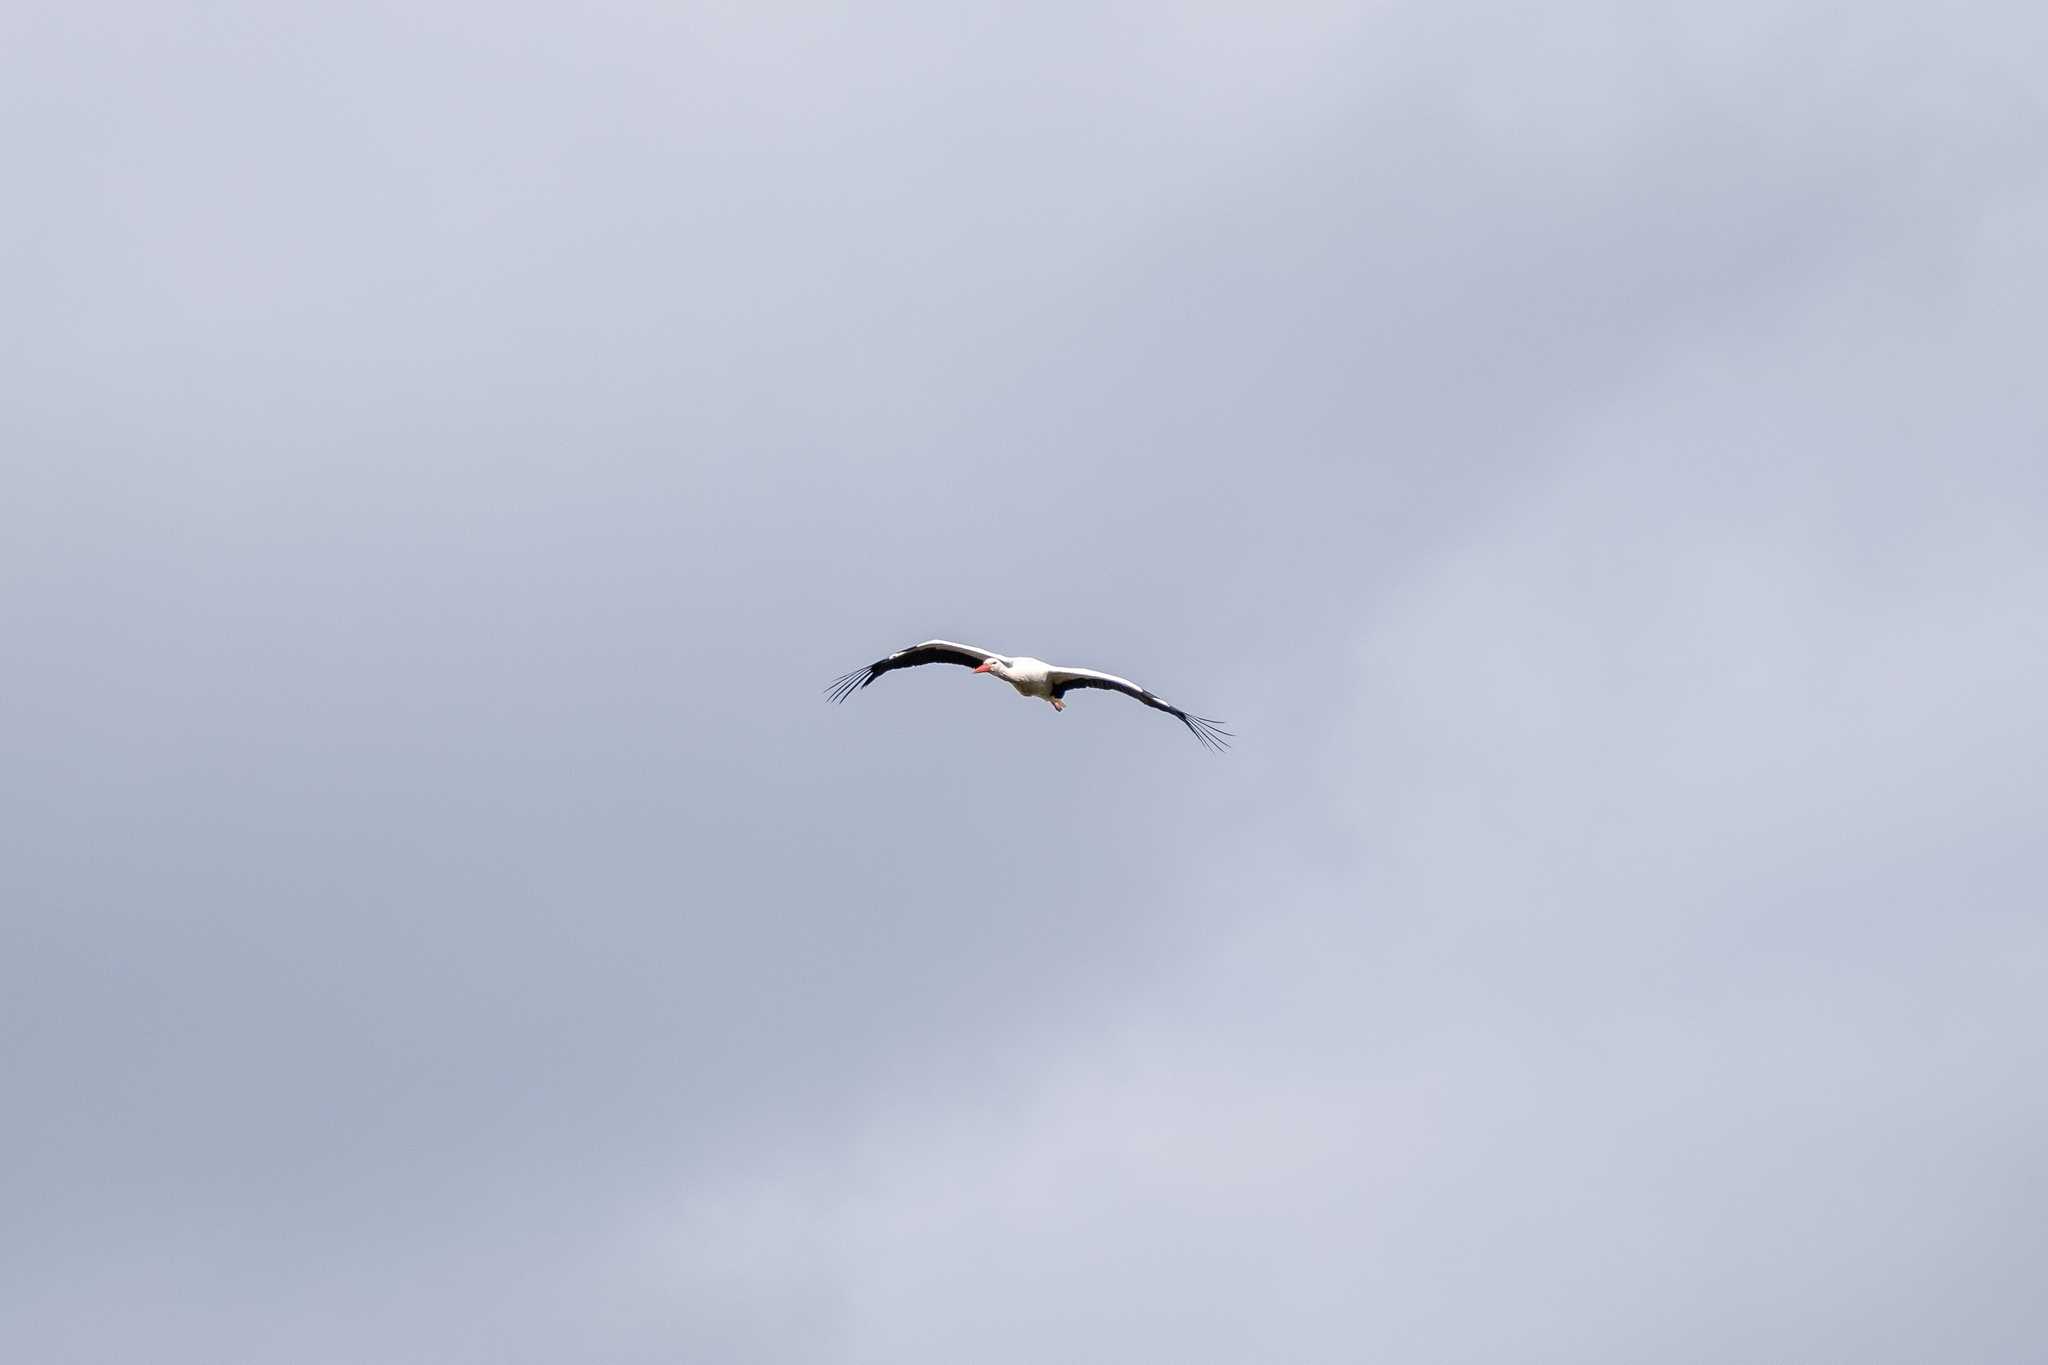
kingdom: Animalia
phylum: Chordata
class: Aves
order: Ciconiiformes
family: Ciconiidae
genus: Ciconia
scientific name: Ciconia ciconia
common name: White stork
